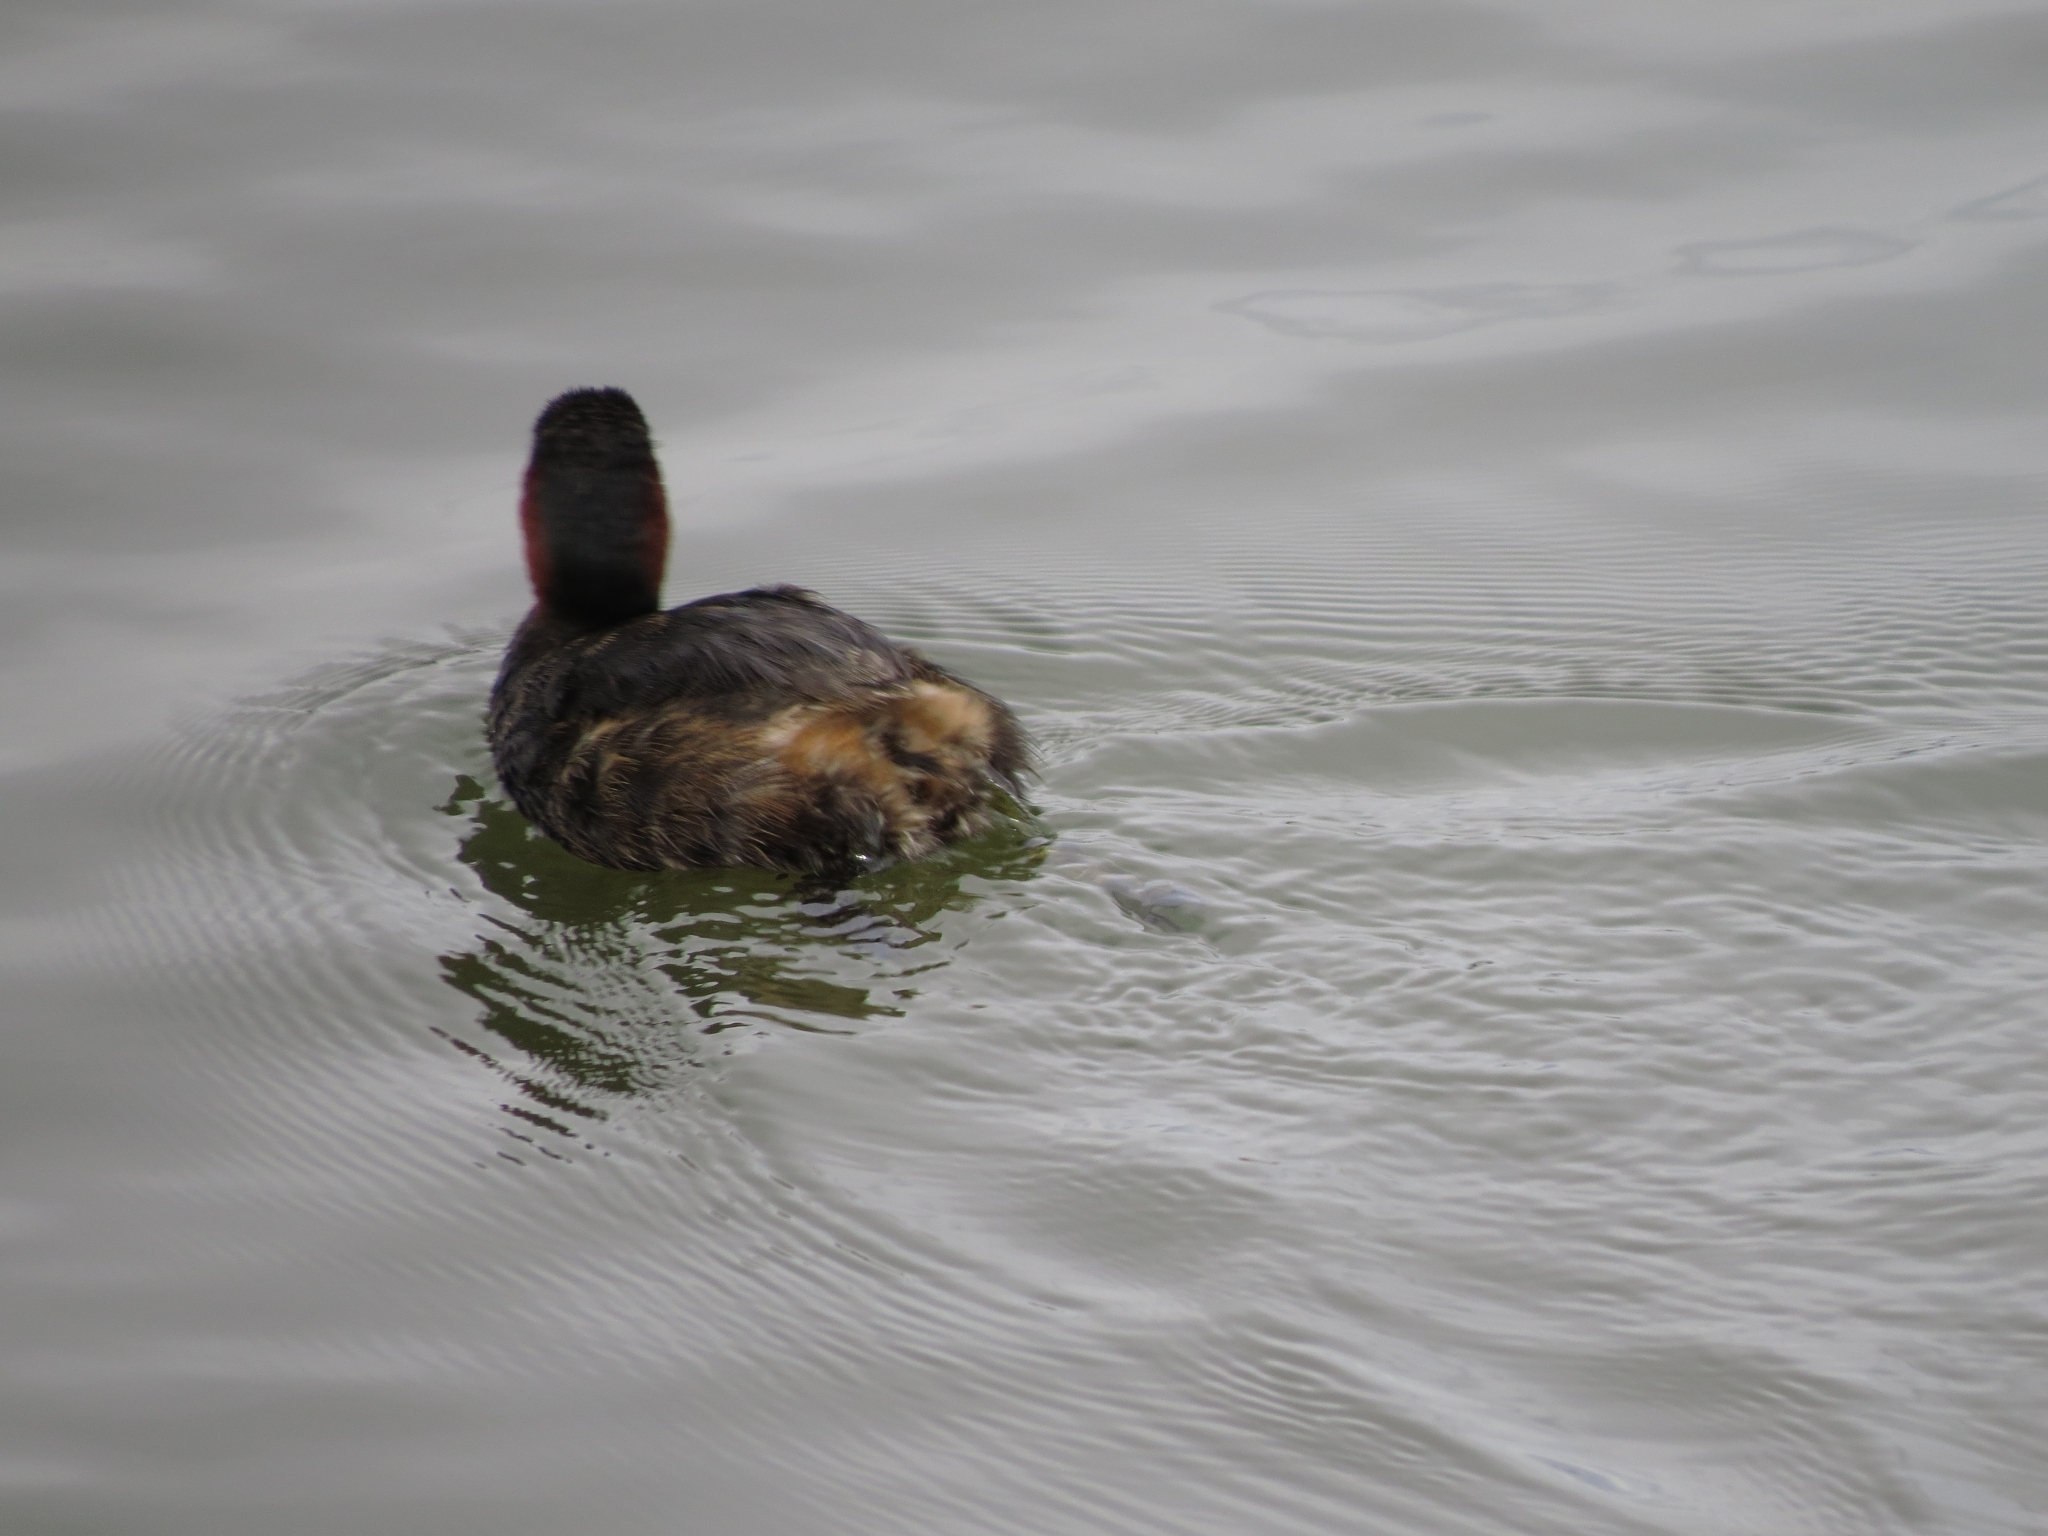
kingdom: Animalia
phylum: Chordata
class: Aves
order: Podicipediformes
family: Podicipedidae
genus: Tachybaptus
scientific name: Tachybaptus ruficollis
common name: Little grebe
